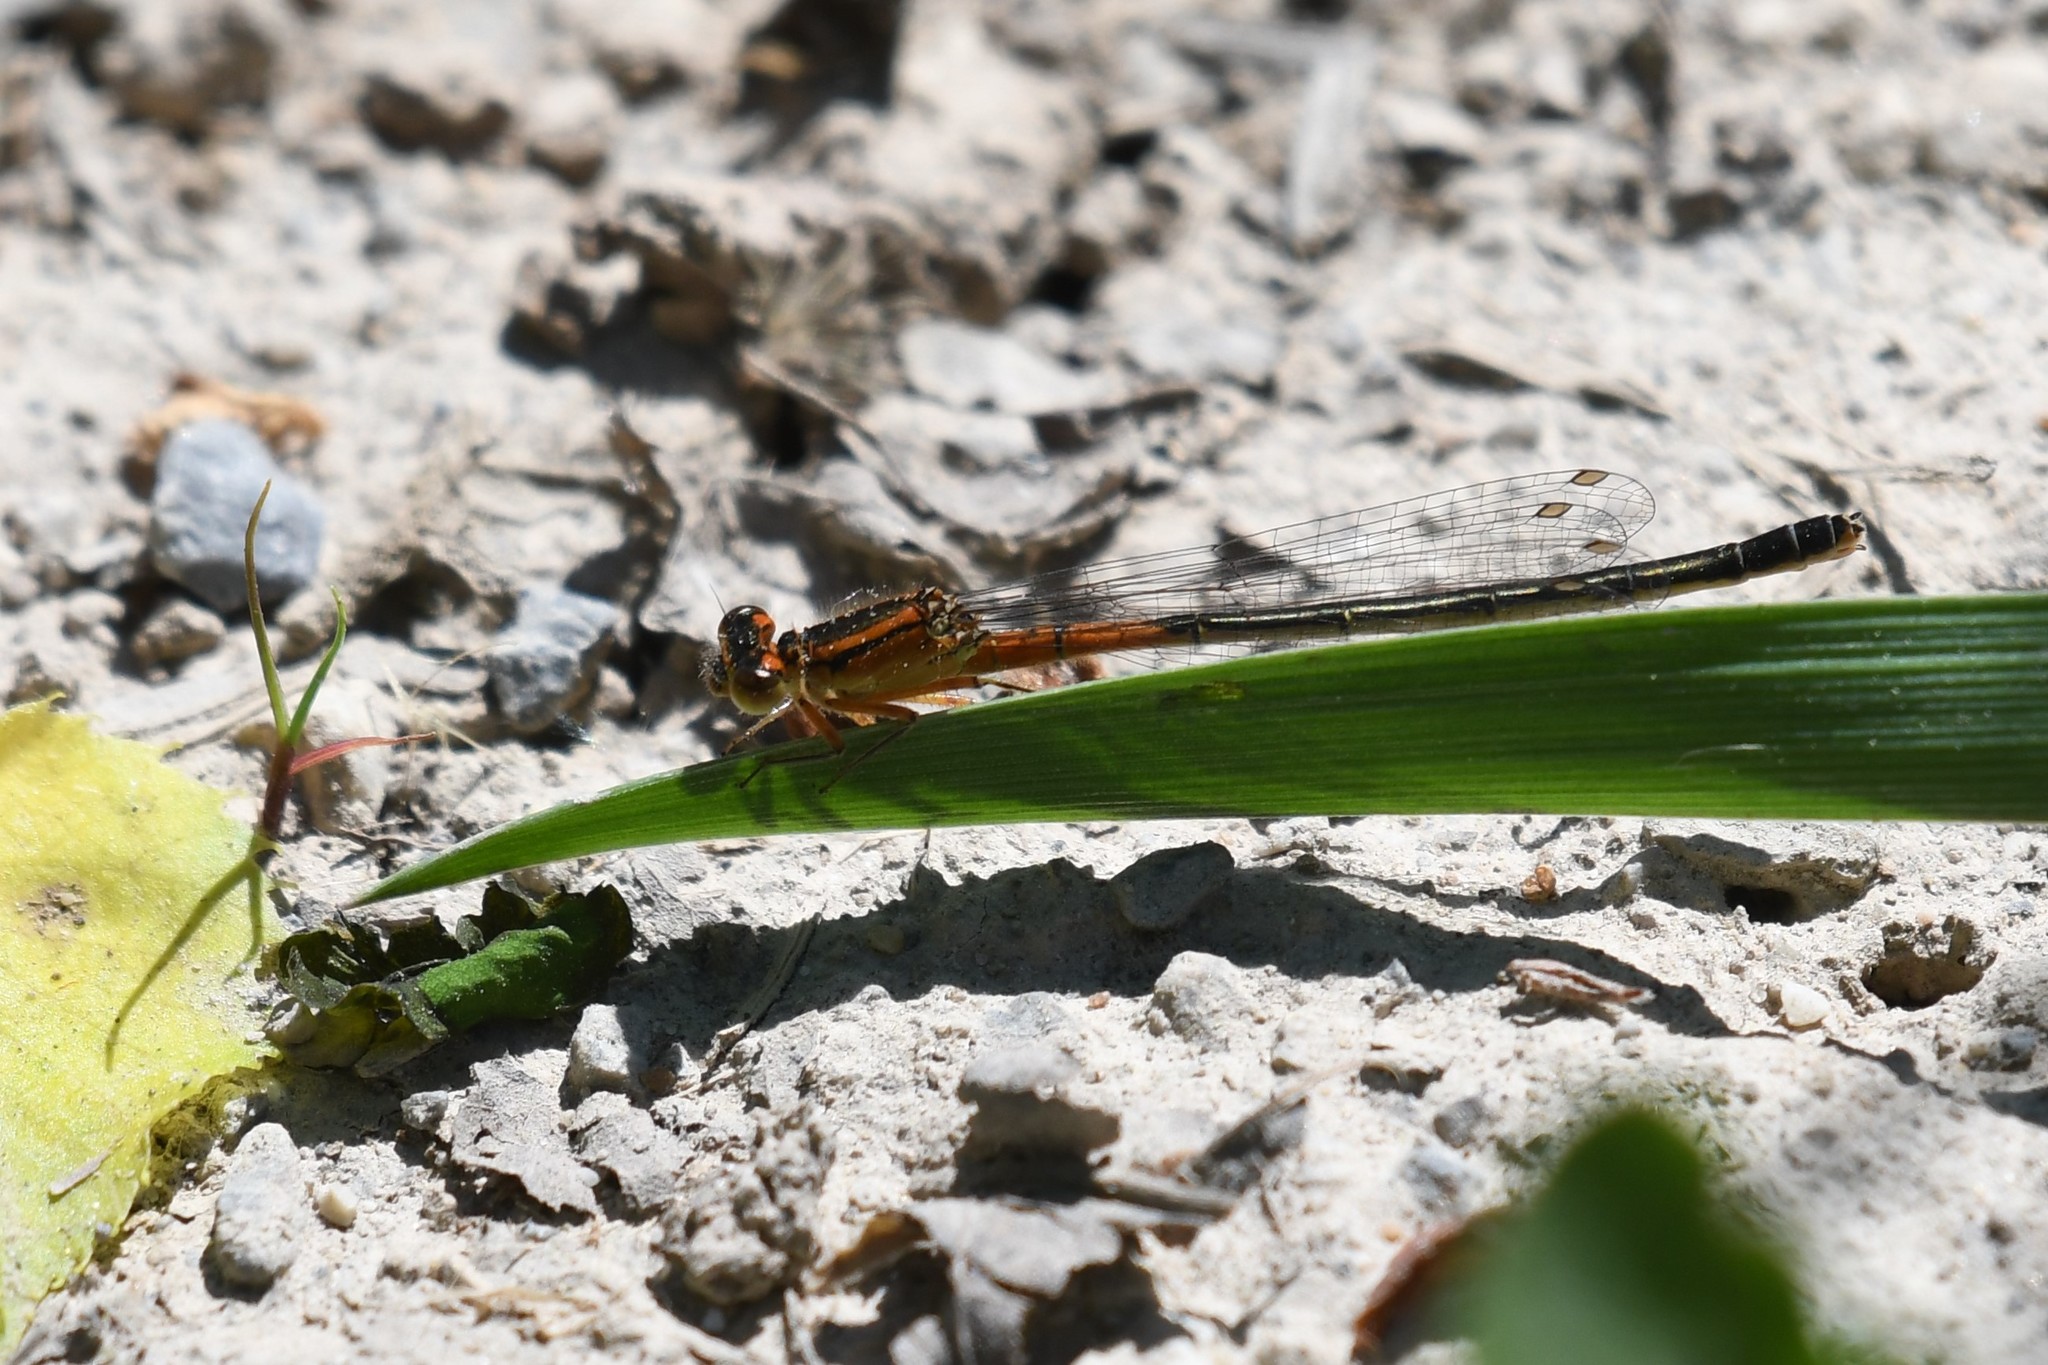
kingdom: Animalia
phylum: Arthropoda
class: Insecta
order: Odonata
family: Coenagrionidae
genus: Ischnura
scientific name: Ischnura verticalis
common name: Eastern forktail
